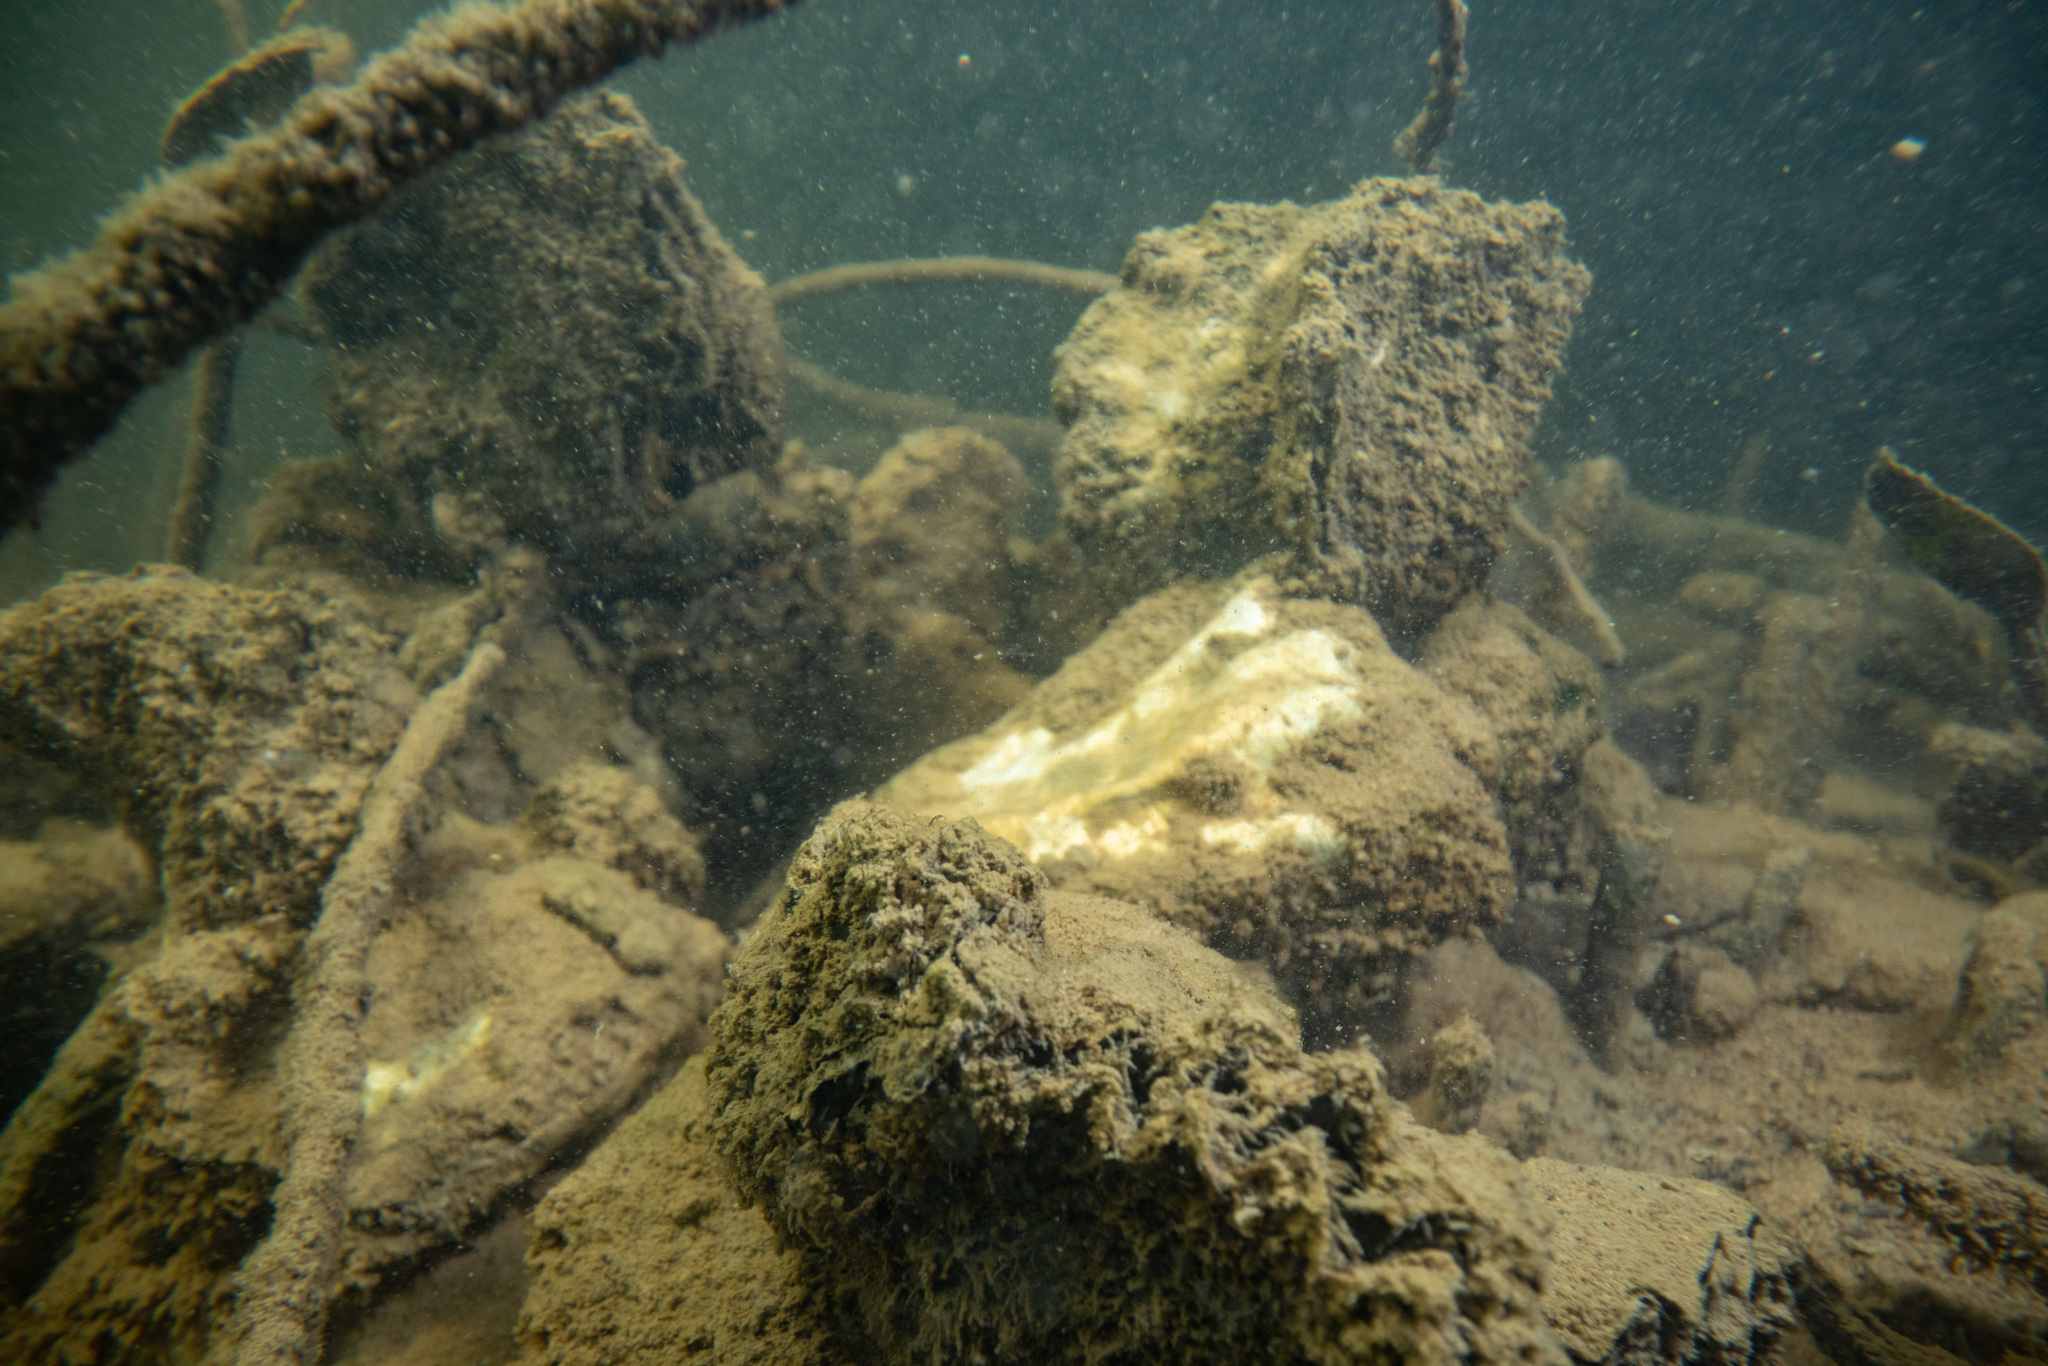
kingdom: Animalia
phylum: Mollusca
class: Bivalvia
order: Ostreida
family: Ostreidae
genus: Magallana
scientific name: Magallana gigas
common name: Pacific oyster
